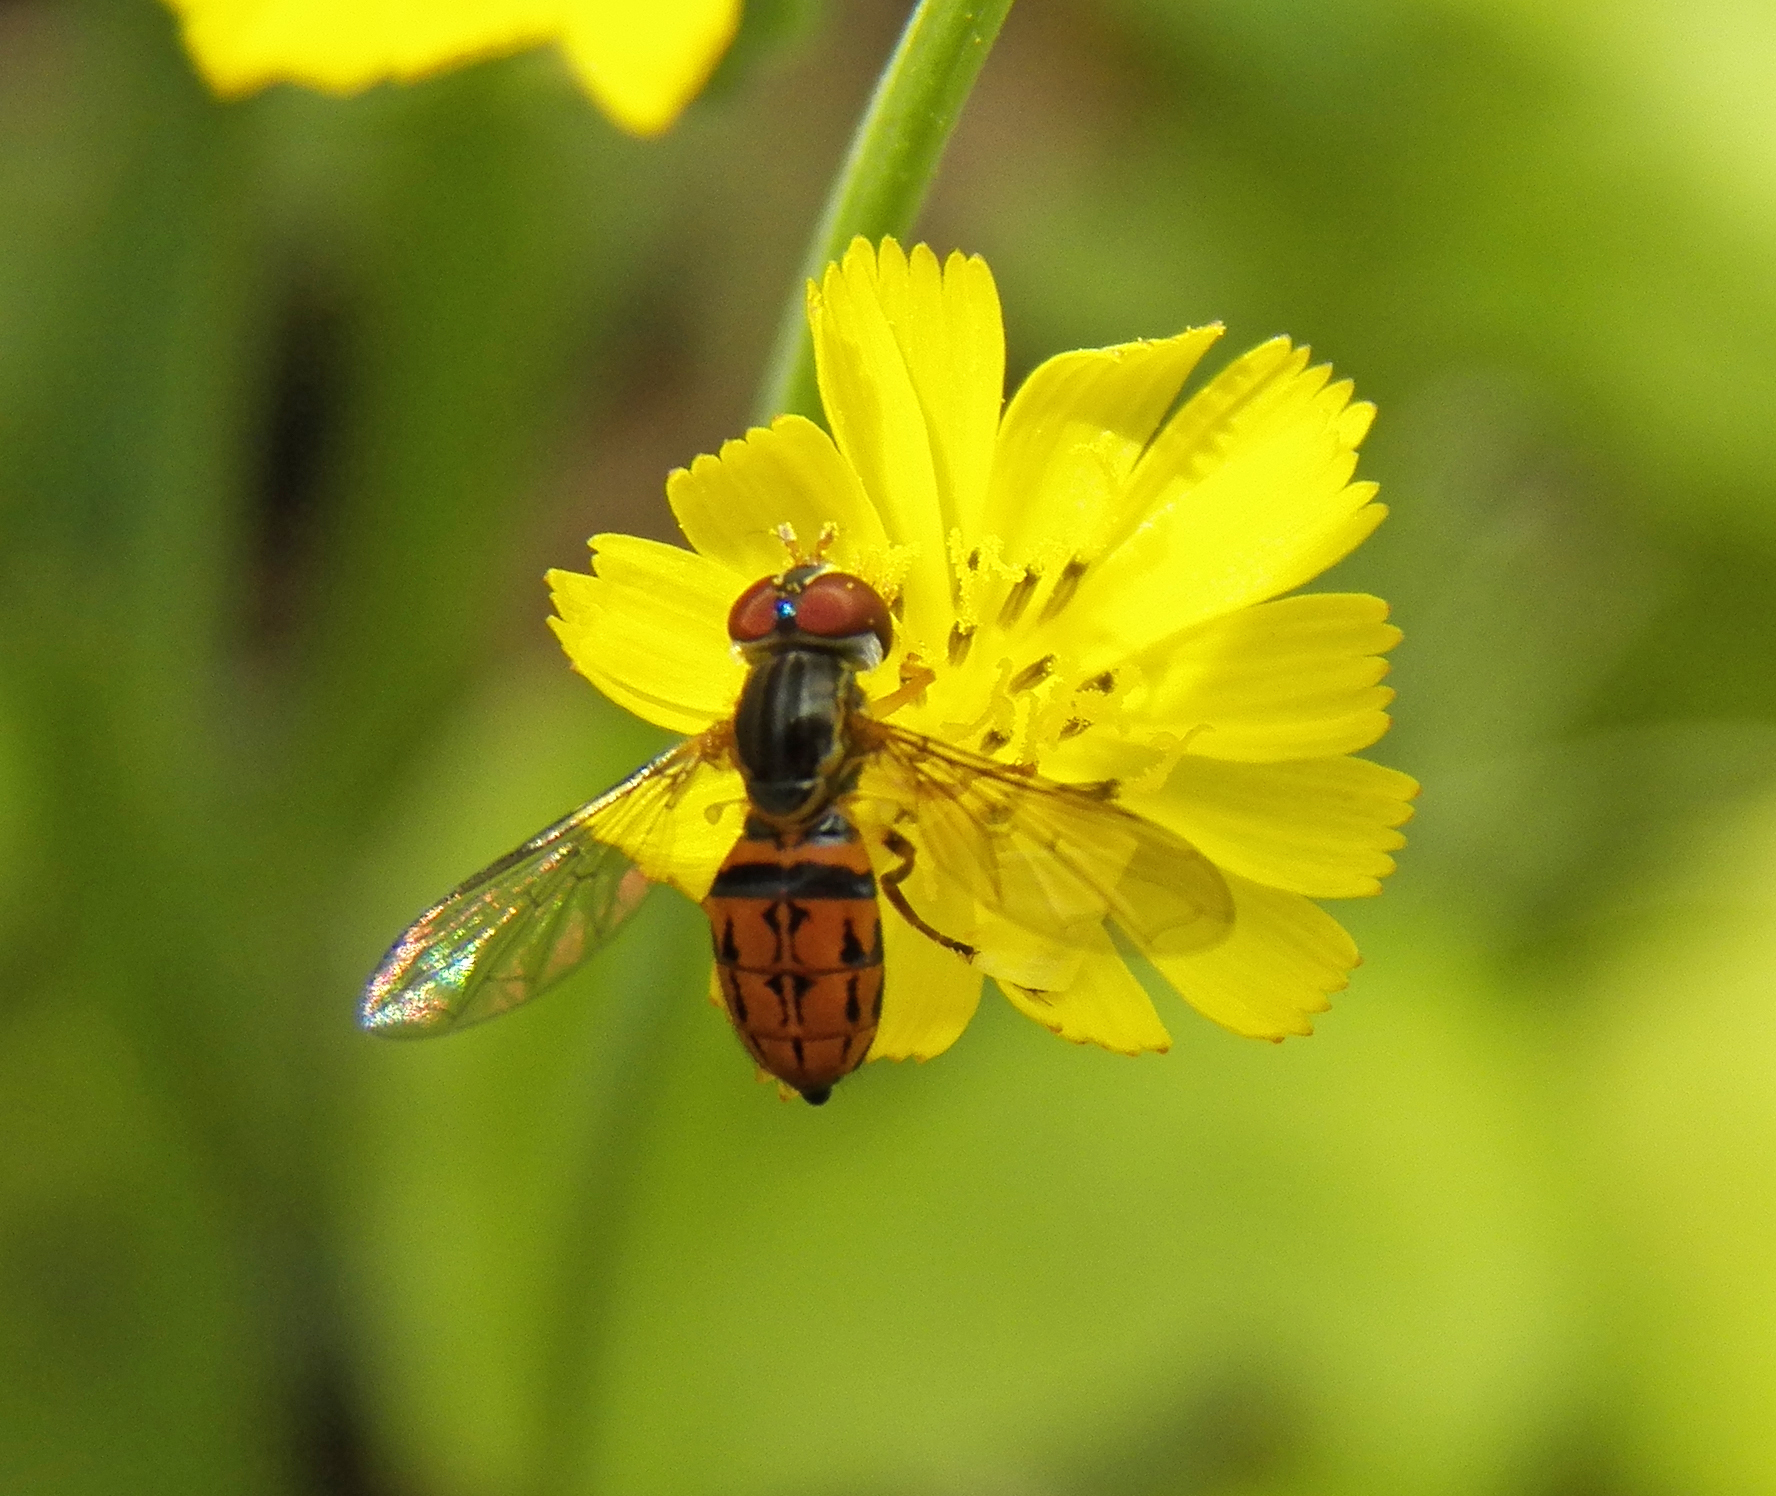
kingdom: Animalia
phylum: Arthropoda
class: Insecta
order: Diptera
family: Syrphidae
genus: Toxomerus
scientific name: Toxomerus boscii
